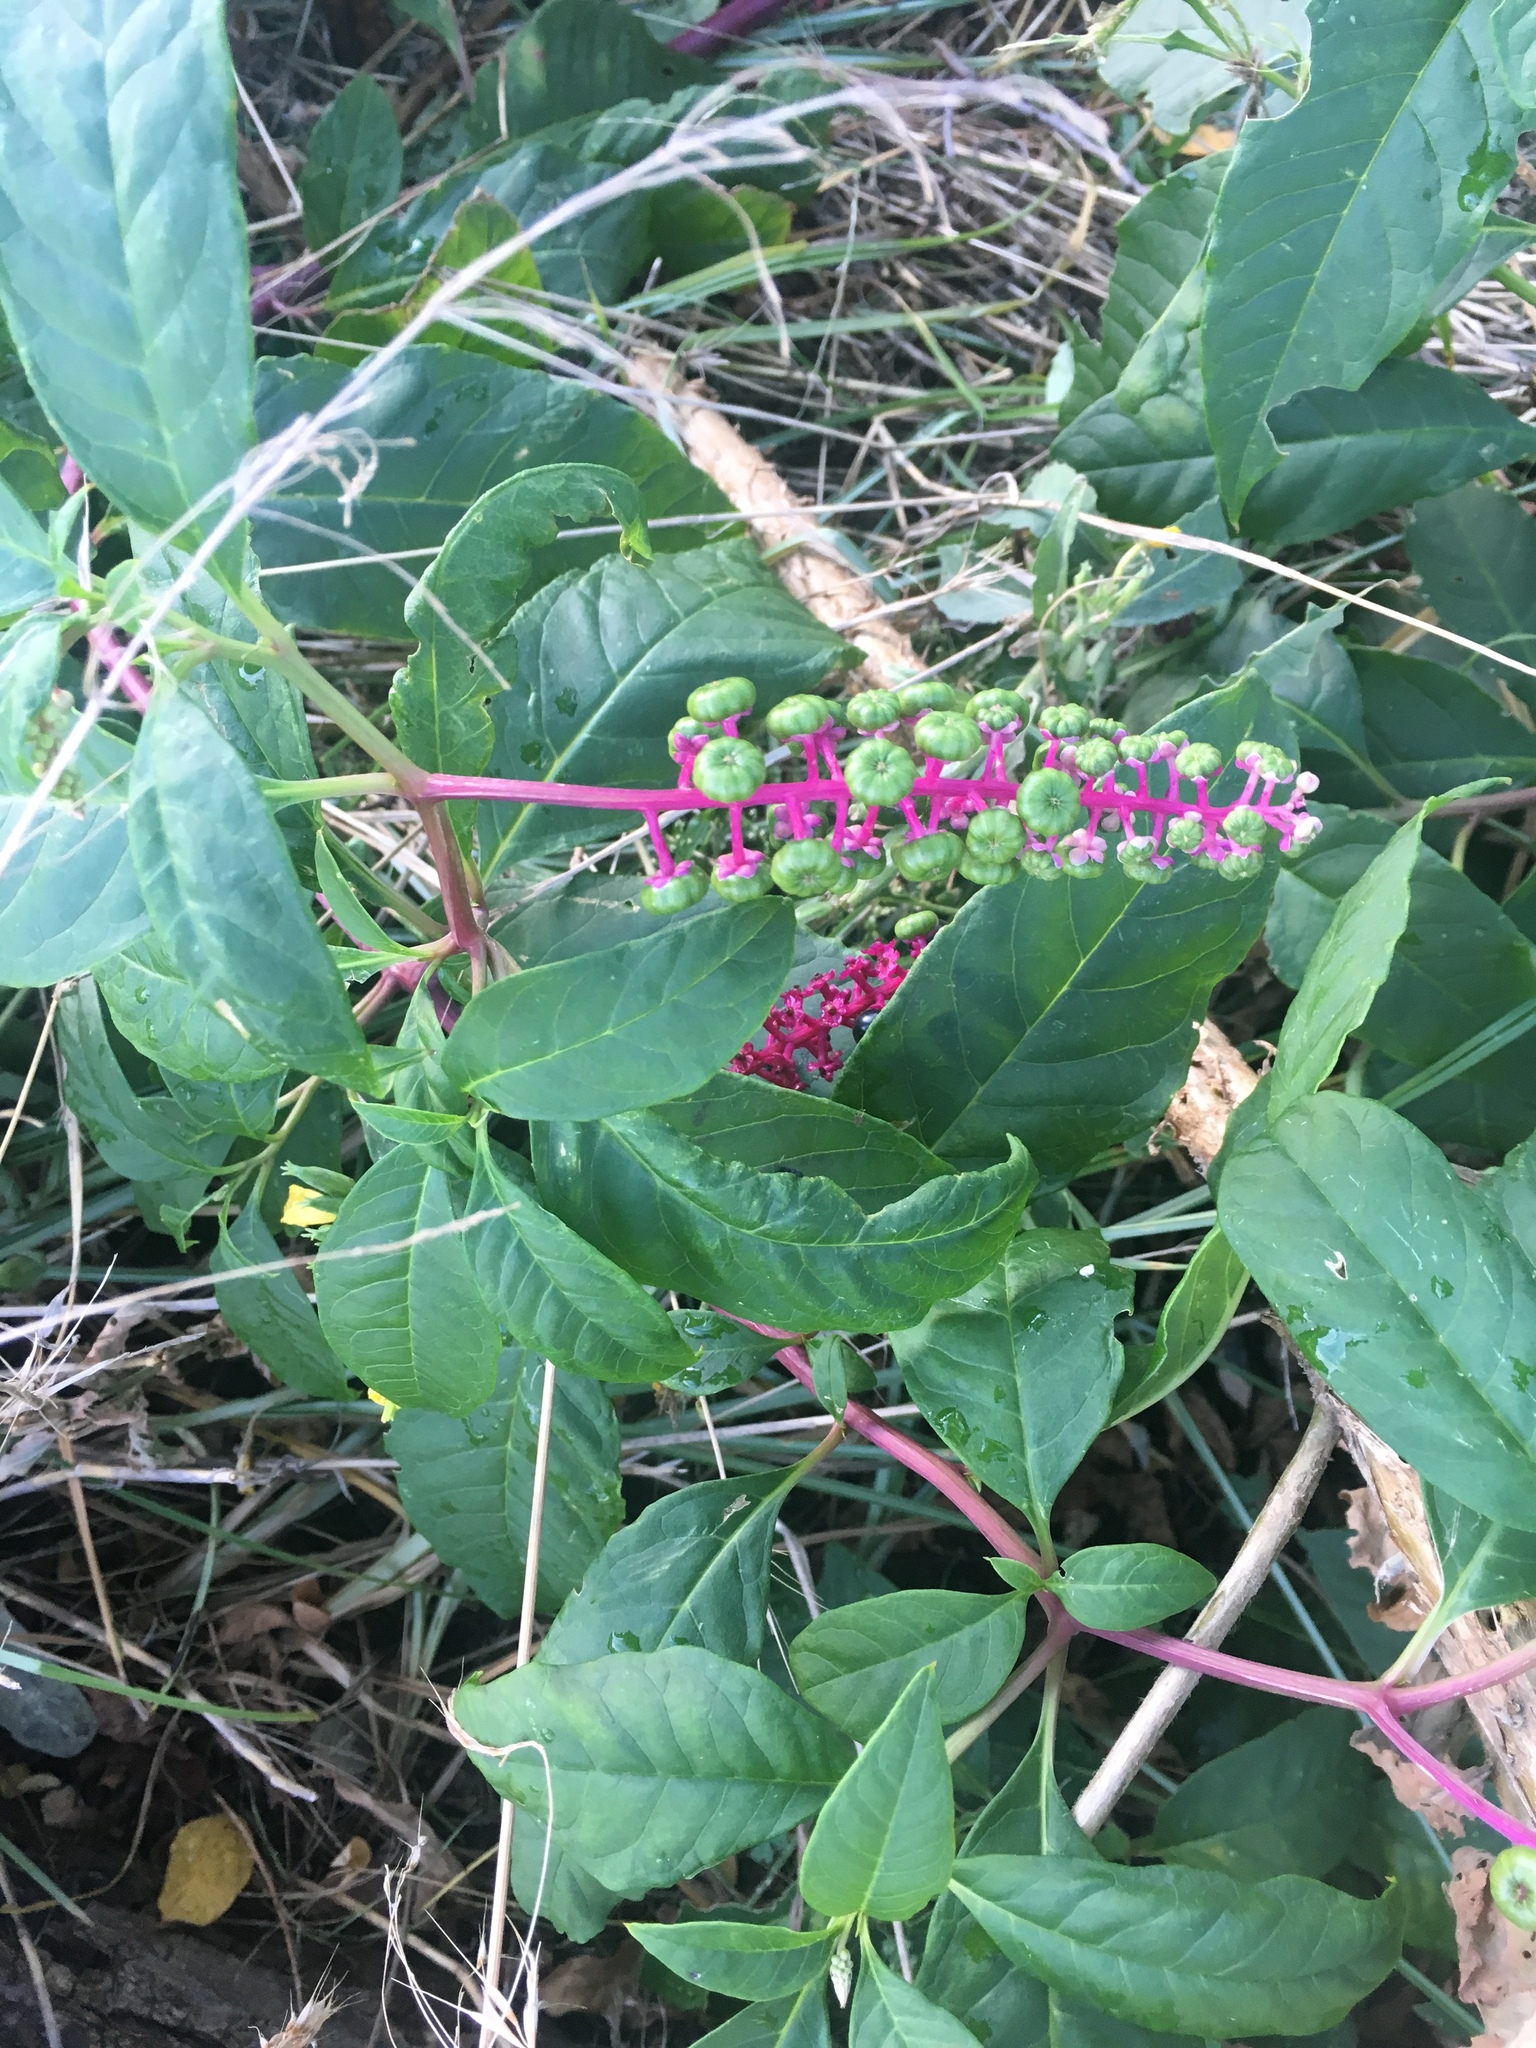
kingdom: Plantae
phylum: Tracheophyta
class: Magnoliopsida
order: Caryophyllales
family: Phytolaccaceae
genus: Phytolacca
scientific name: Phytolacca americana
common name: American pokeweed
